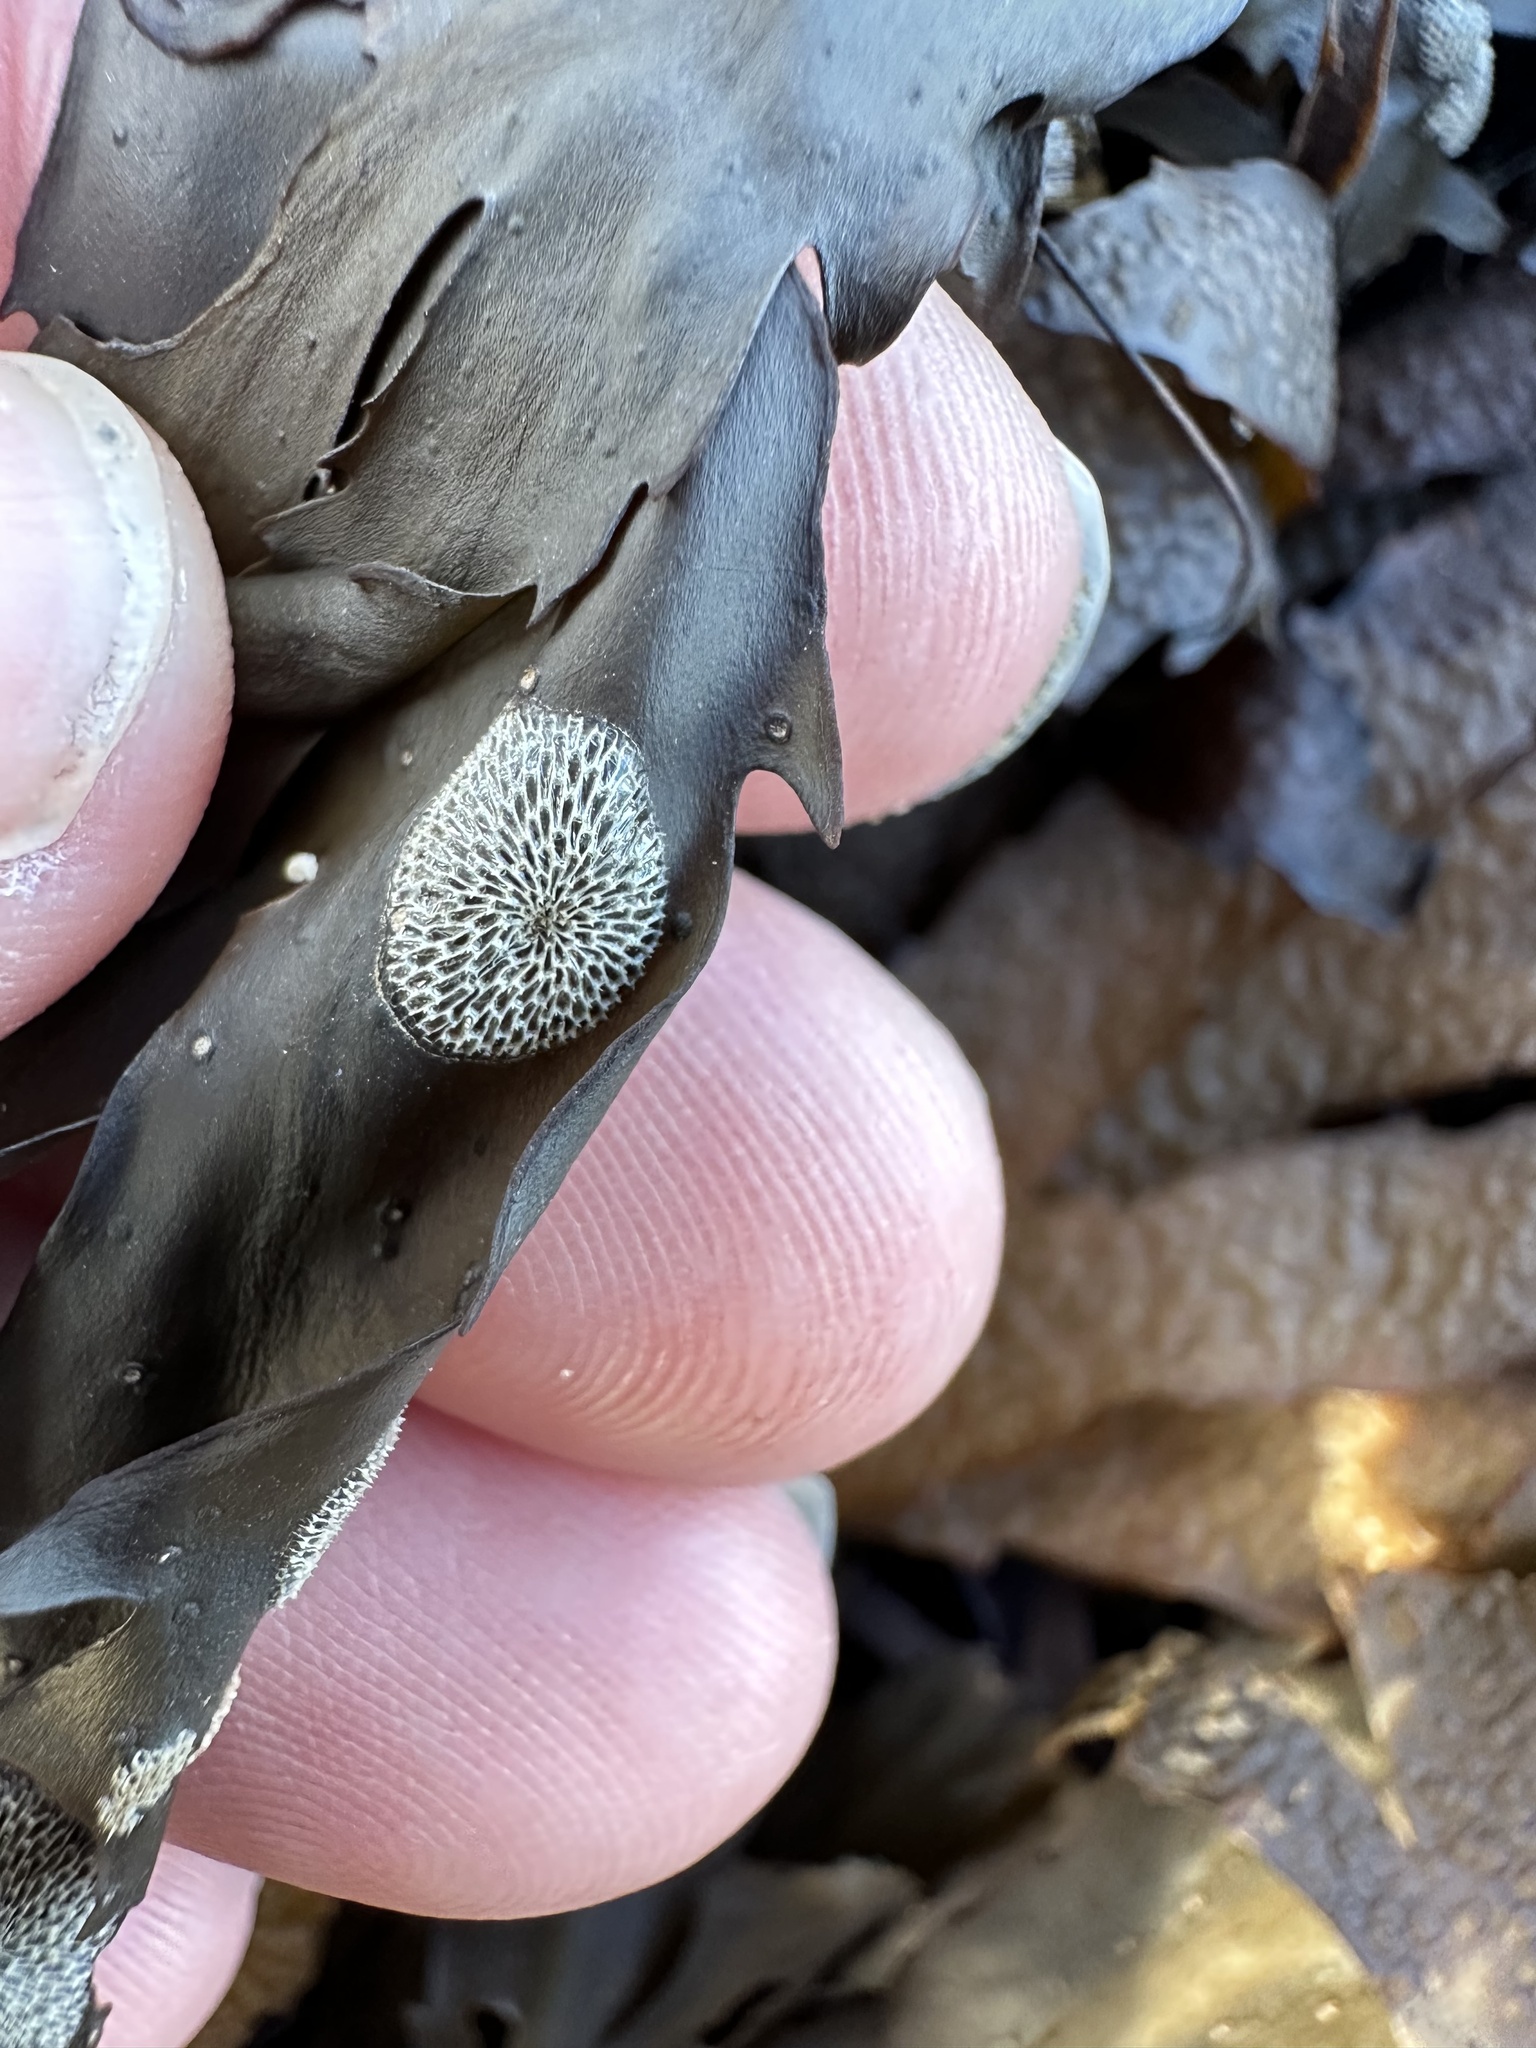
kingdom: Animalia
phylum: Bryozoa
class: Gymnolaemata
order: Cheilostomatida
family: Membraniporidae
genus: Membranipora
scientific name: Membranipora membranacea
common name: Sea mat
